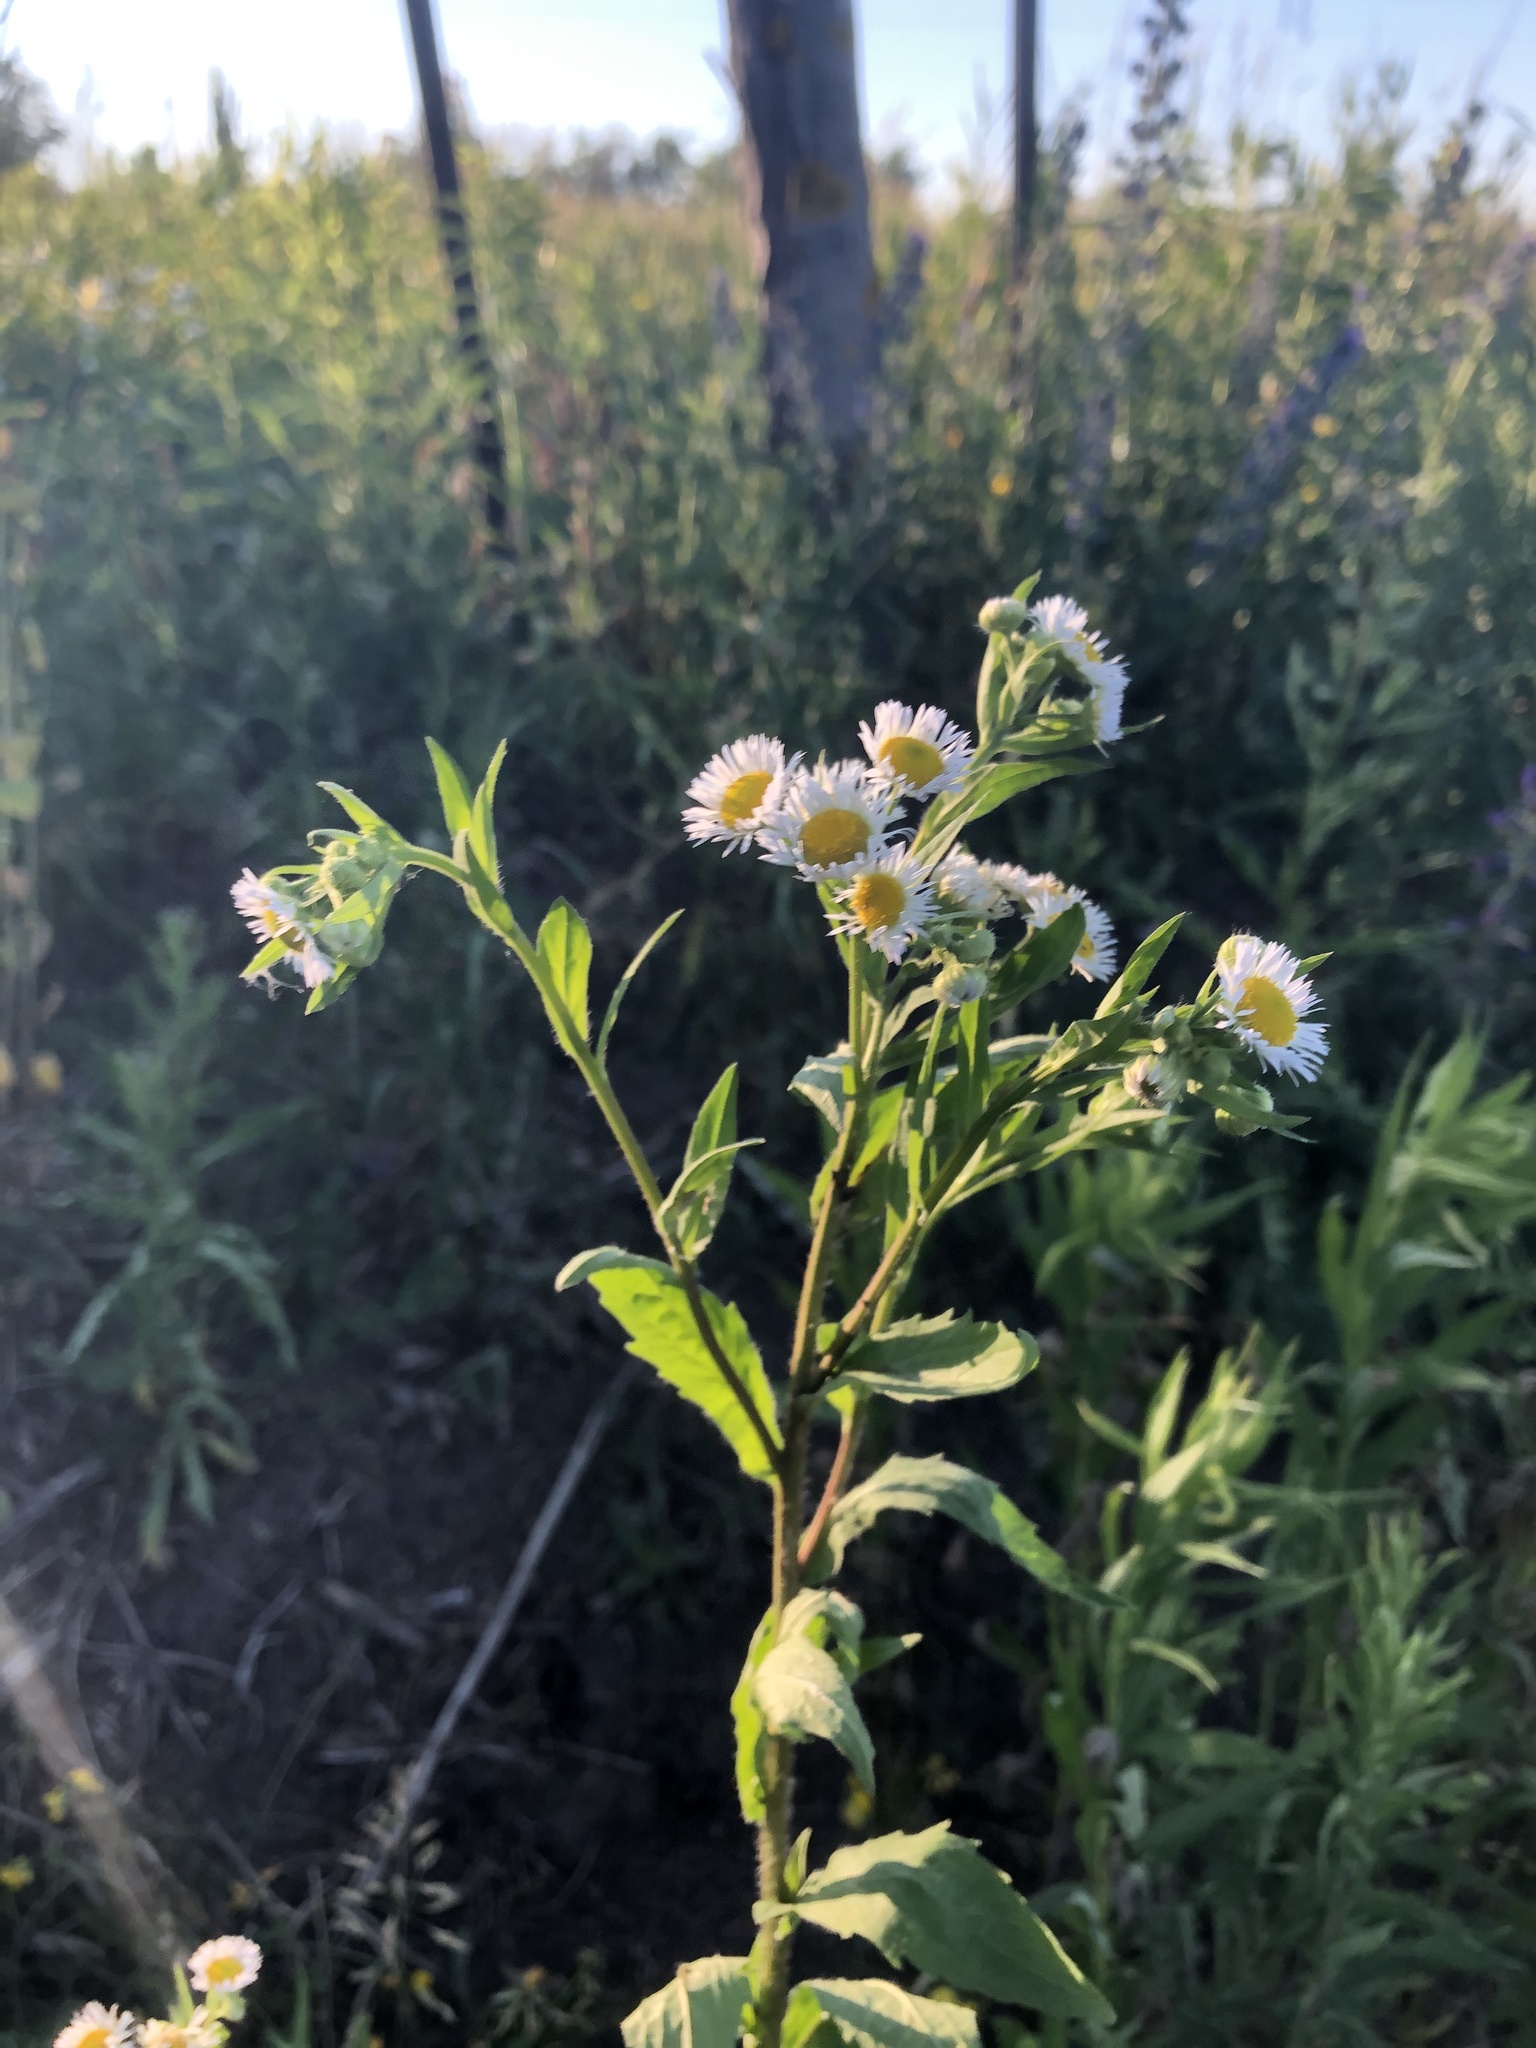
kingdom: Plantae
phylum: Tracheophyta
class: Magnoliopsida
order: Asterales
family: Asteraceae
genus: Erigeron
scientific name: Erigeron annuus
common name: Tall fleabane
